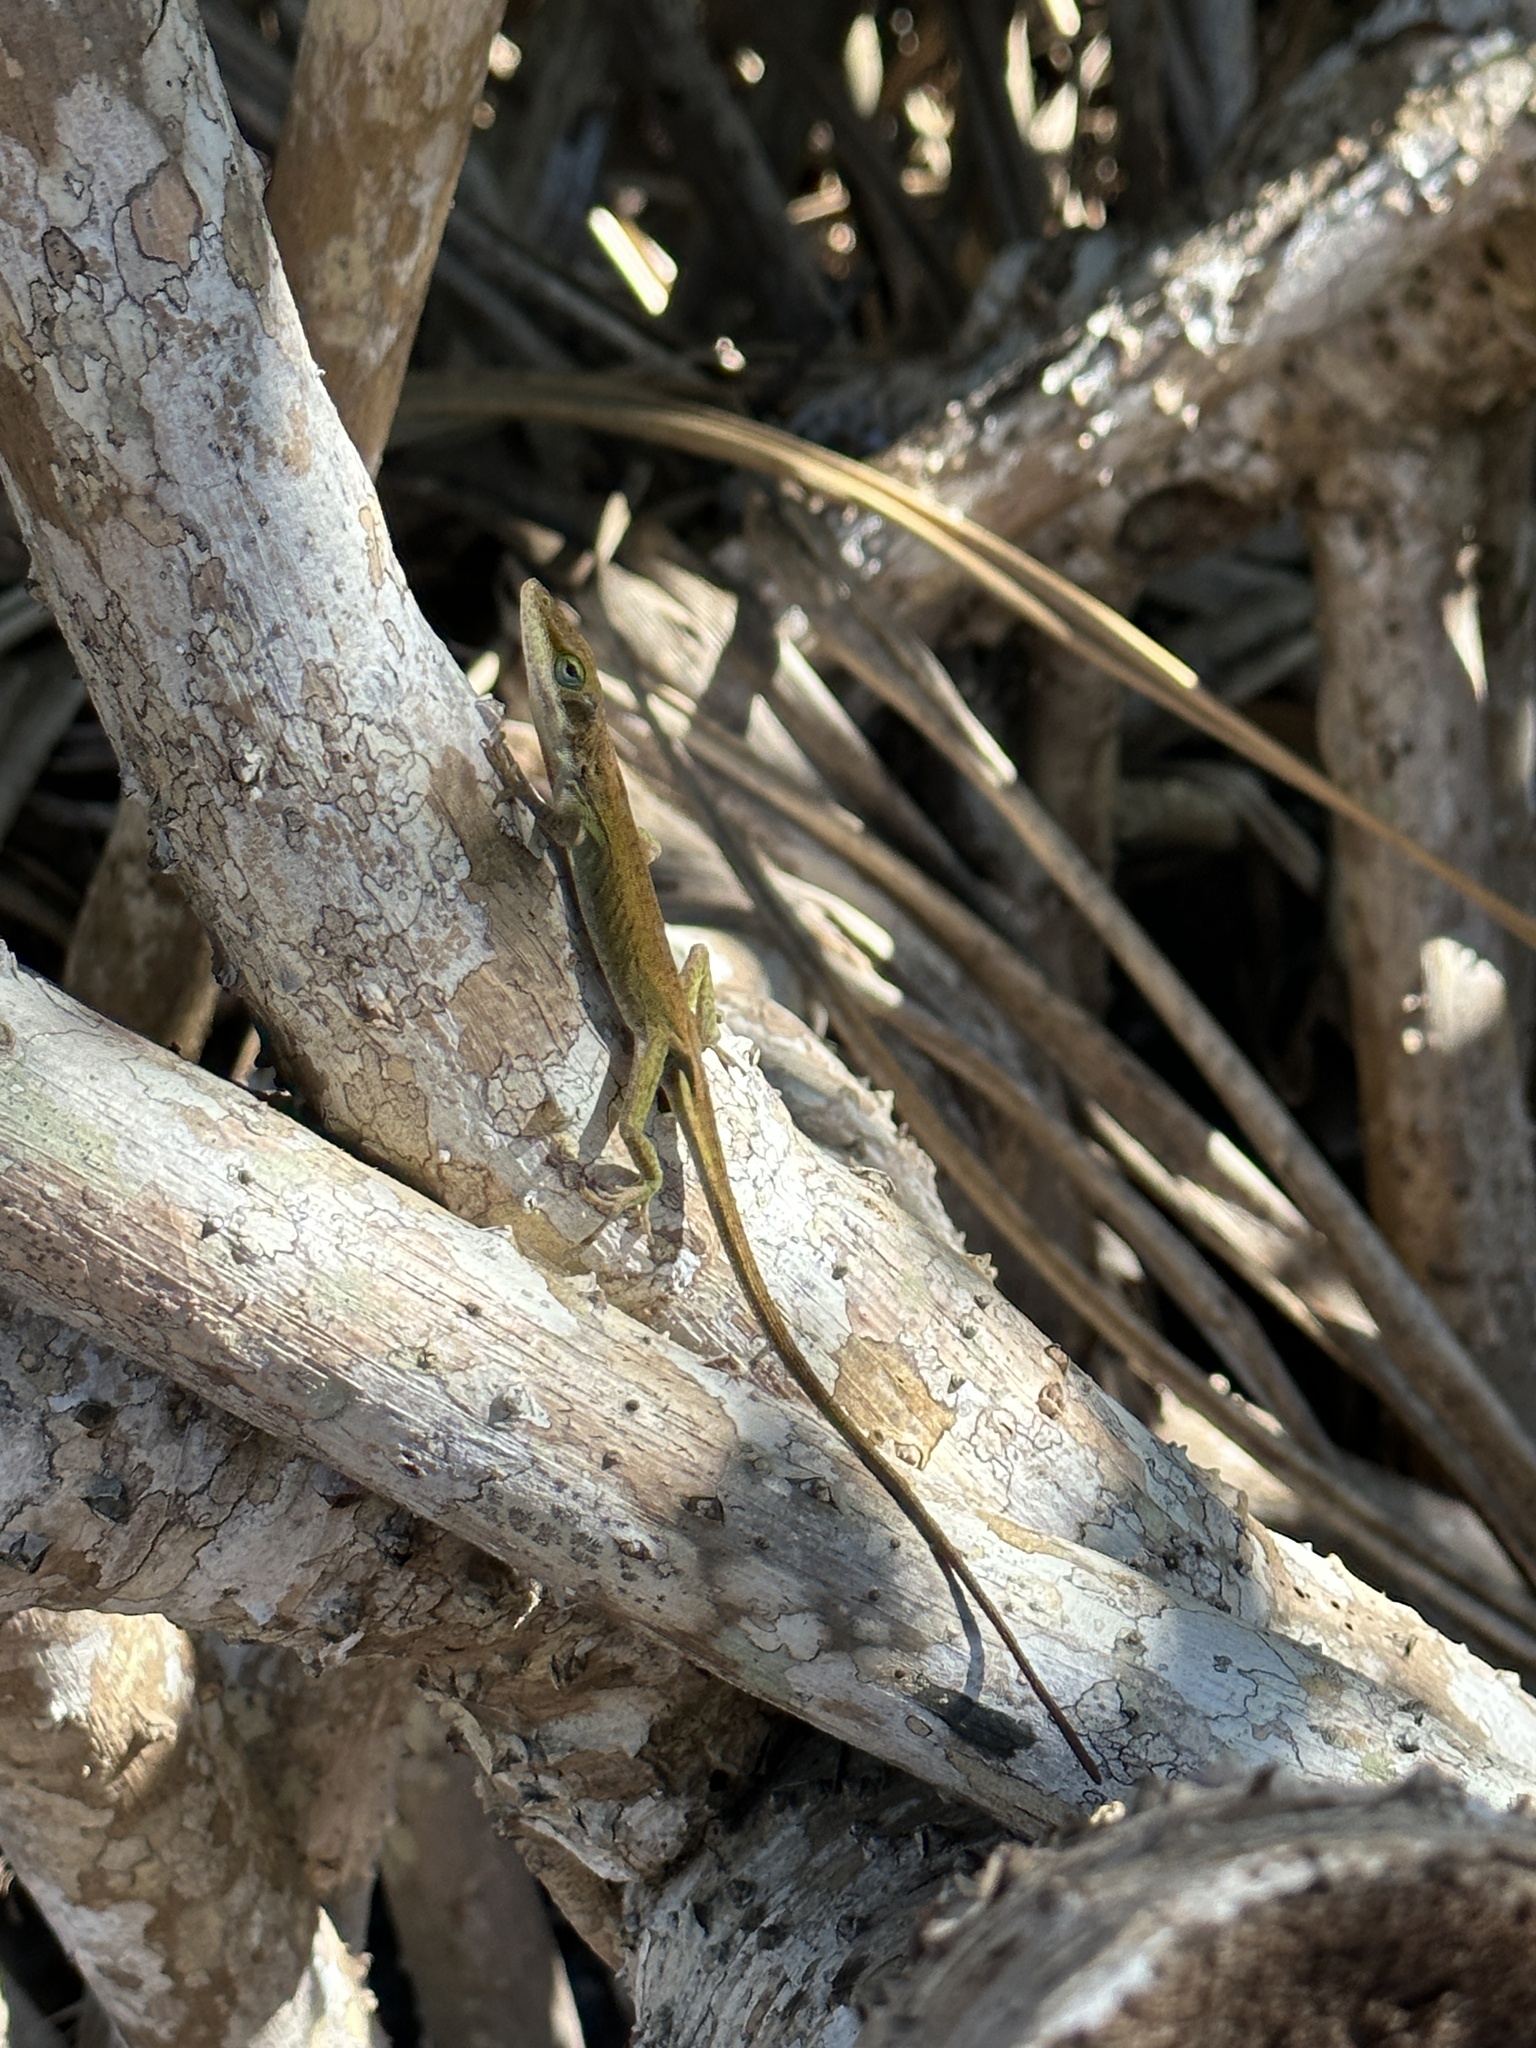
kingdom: Animalia
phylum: Chordata
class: Squamata
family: Dactyloidae
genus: Anolis
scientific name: Anolis carolinensis
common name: Green anole
